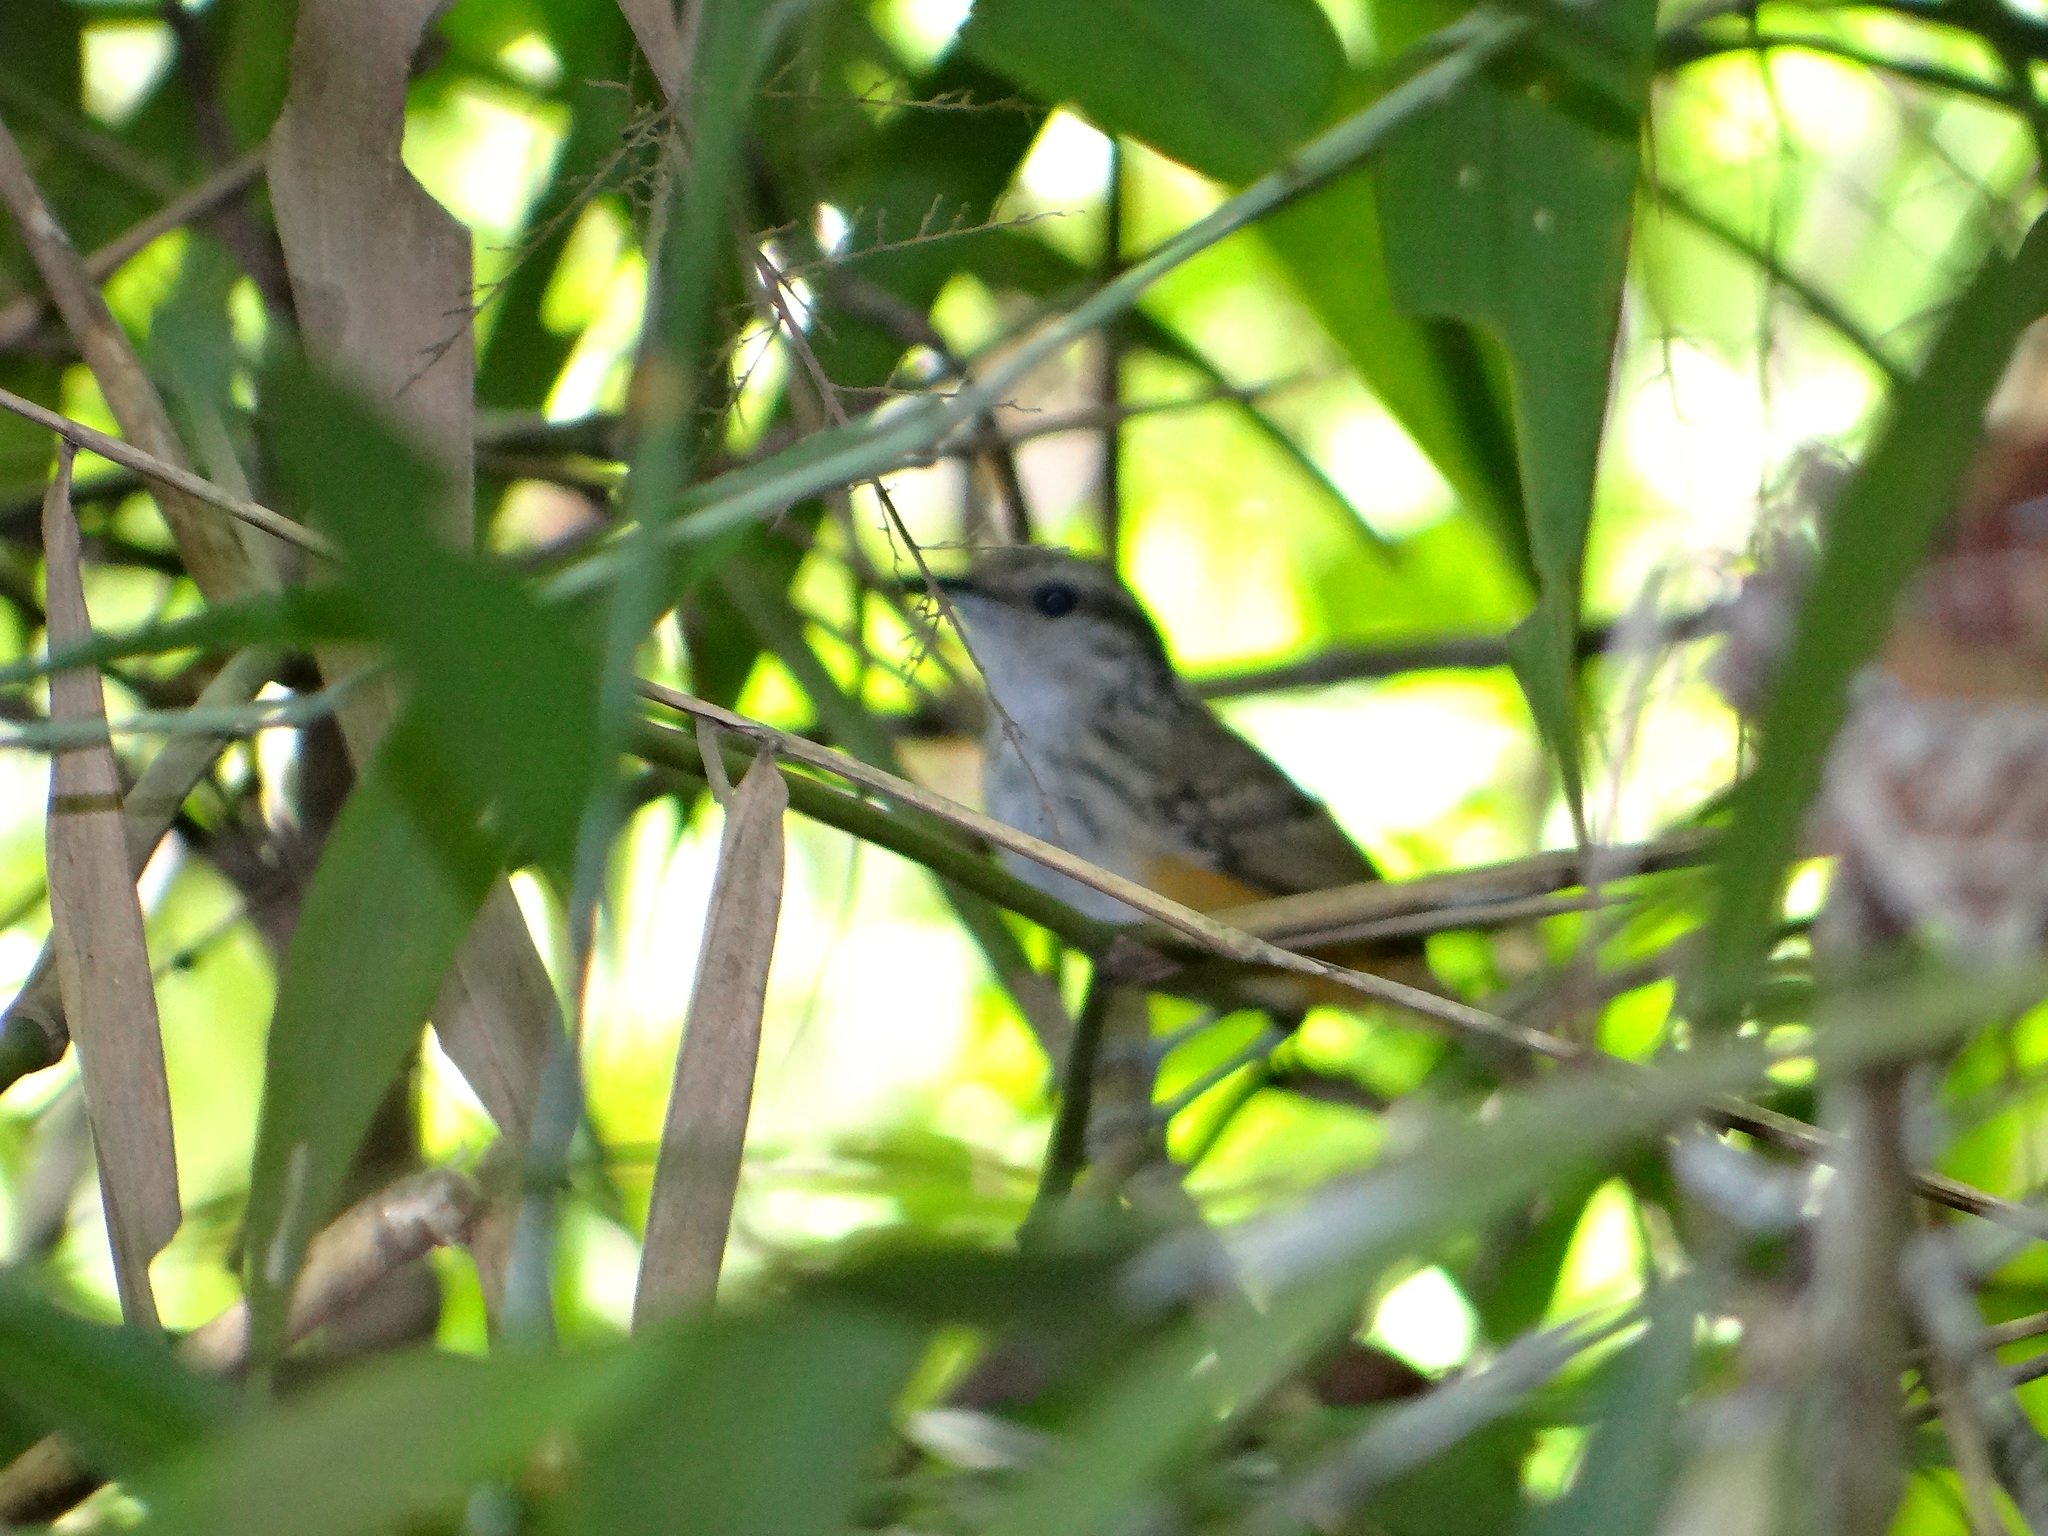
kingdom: Animalia
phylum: Chordata
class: Aves
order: Passeriformes
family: Thamnophilidae
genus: Hypocnemis
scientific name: Hypocnemis peruviana
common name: Peruvian warbling-antbird
